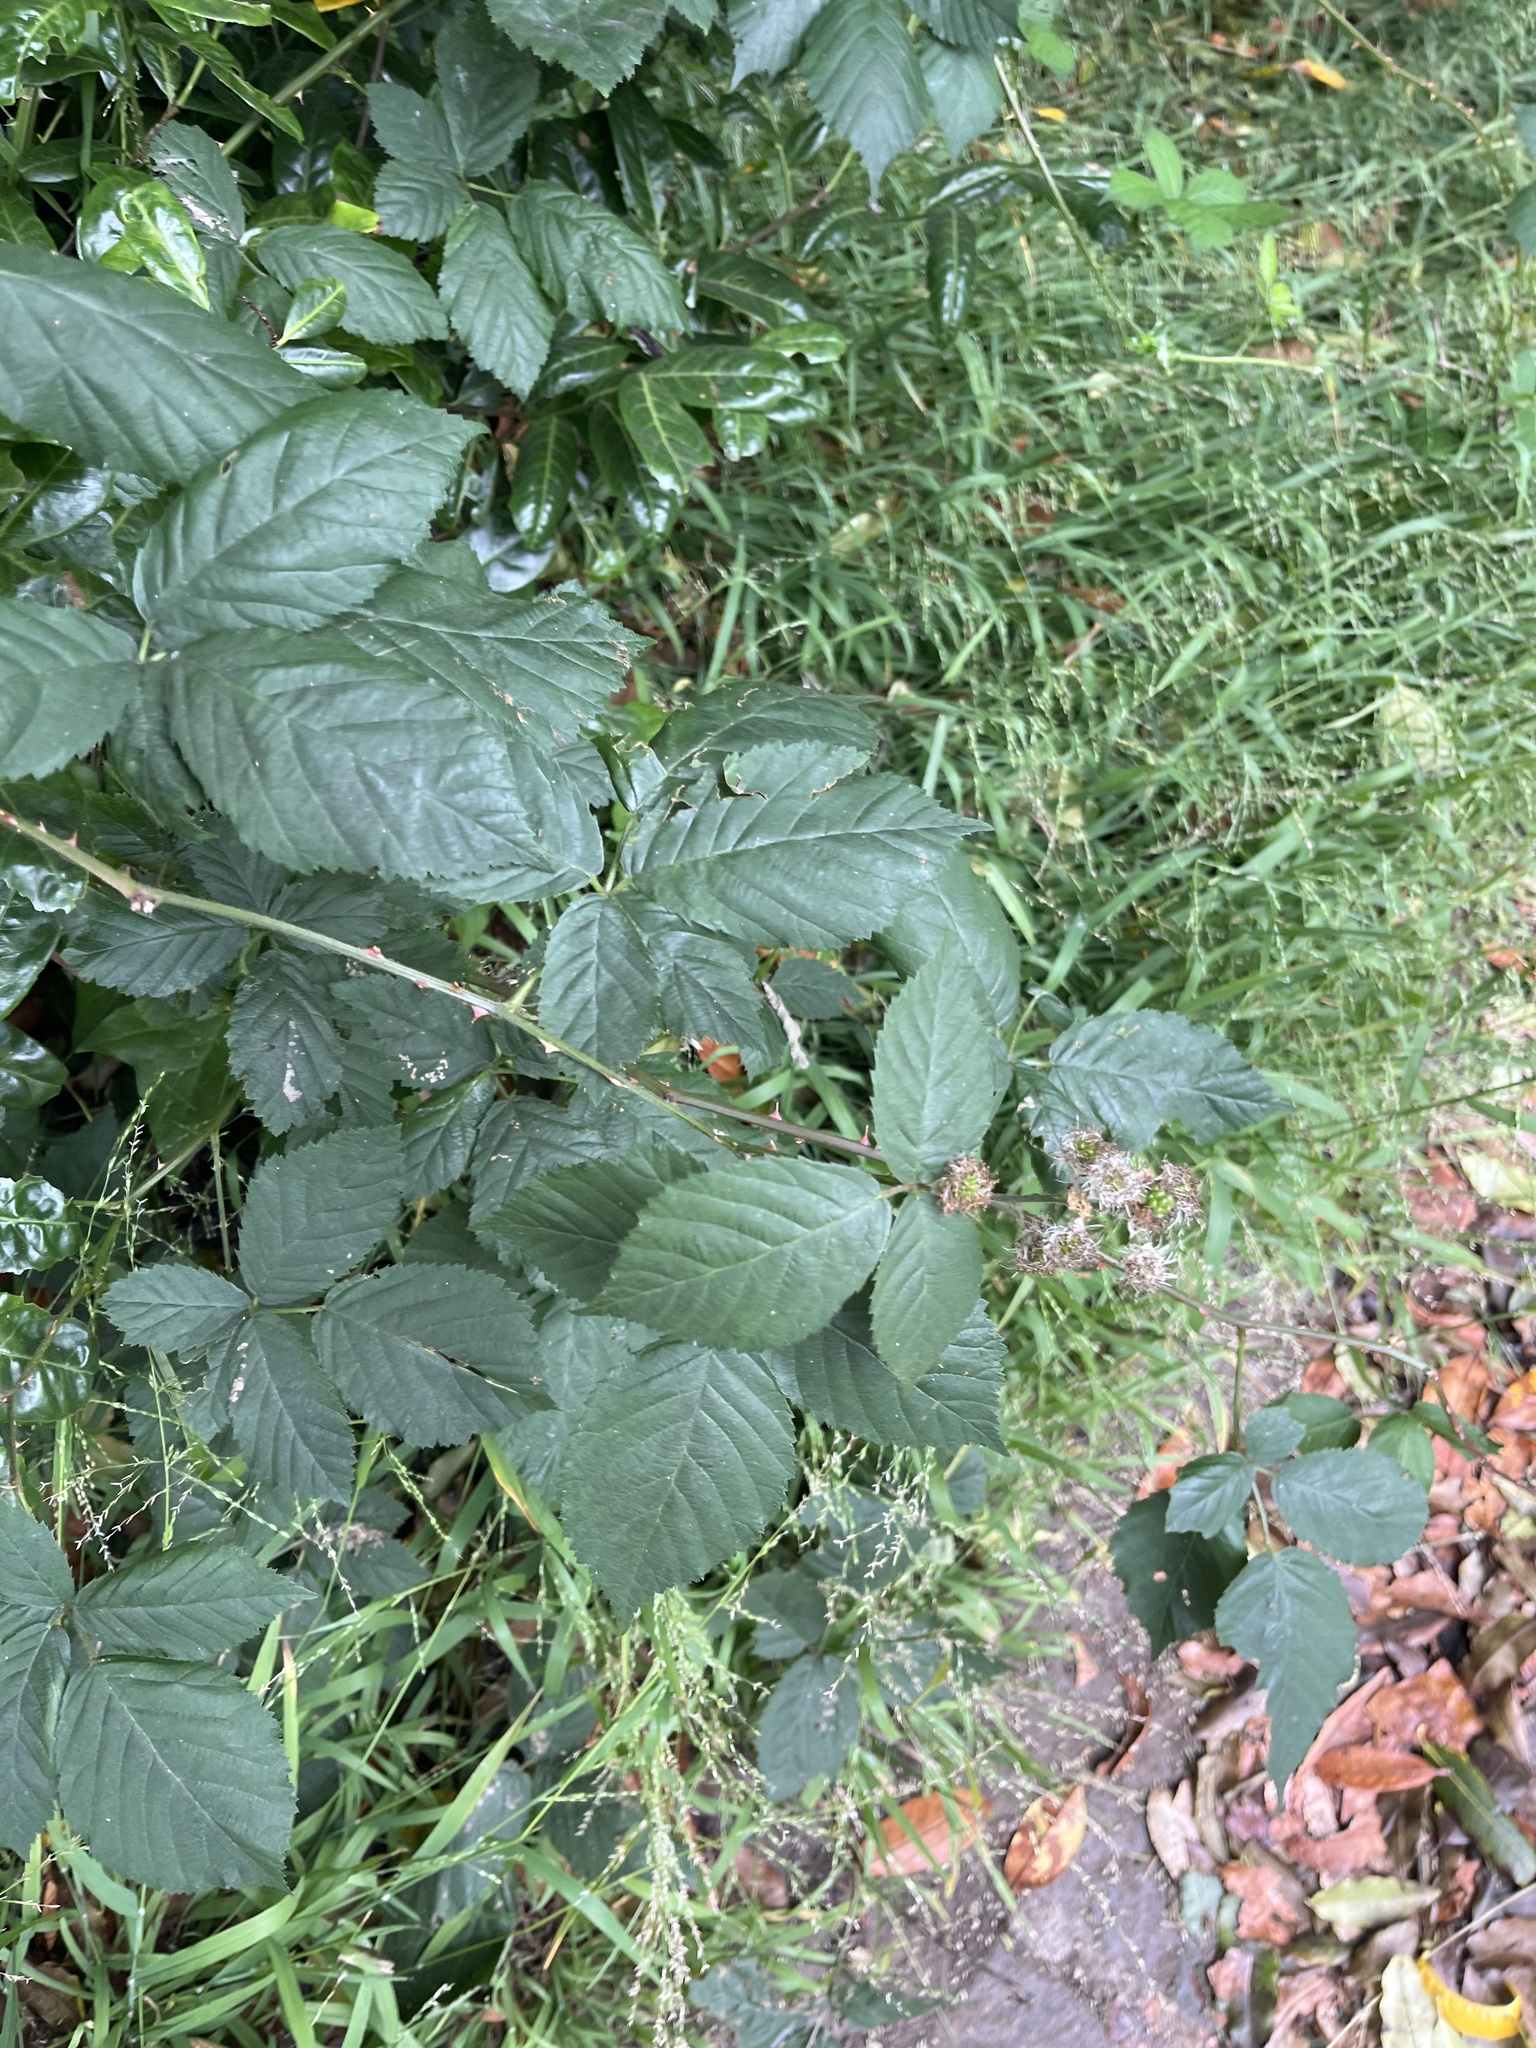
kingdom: Plantae
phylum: Tracheophyta
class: Magnoliopsida
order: Rosales
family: Rosaceae
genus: Rubus
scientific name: Rubus armeniacus
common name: Himalayan blackberry
